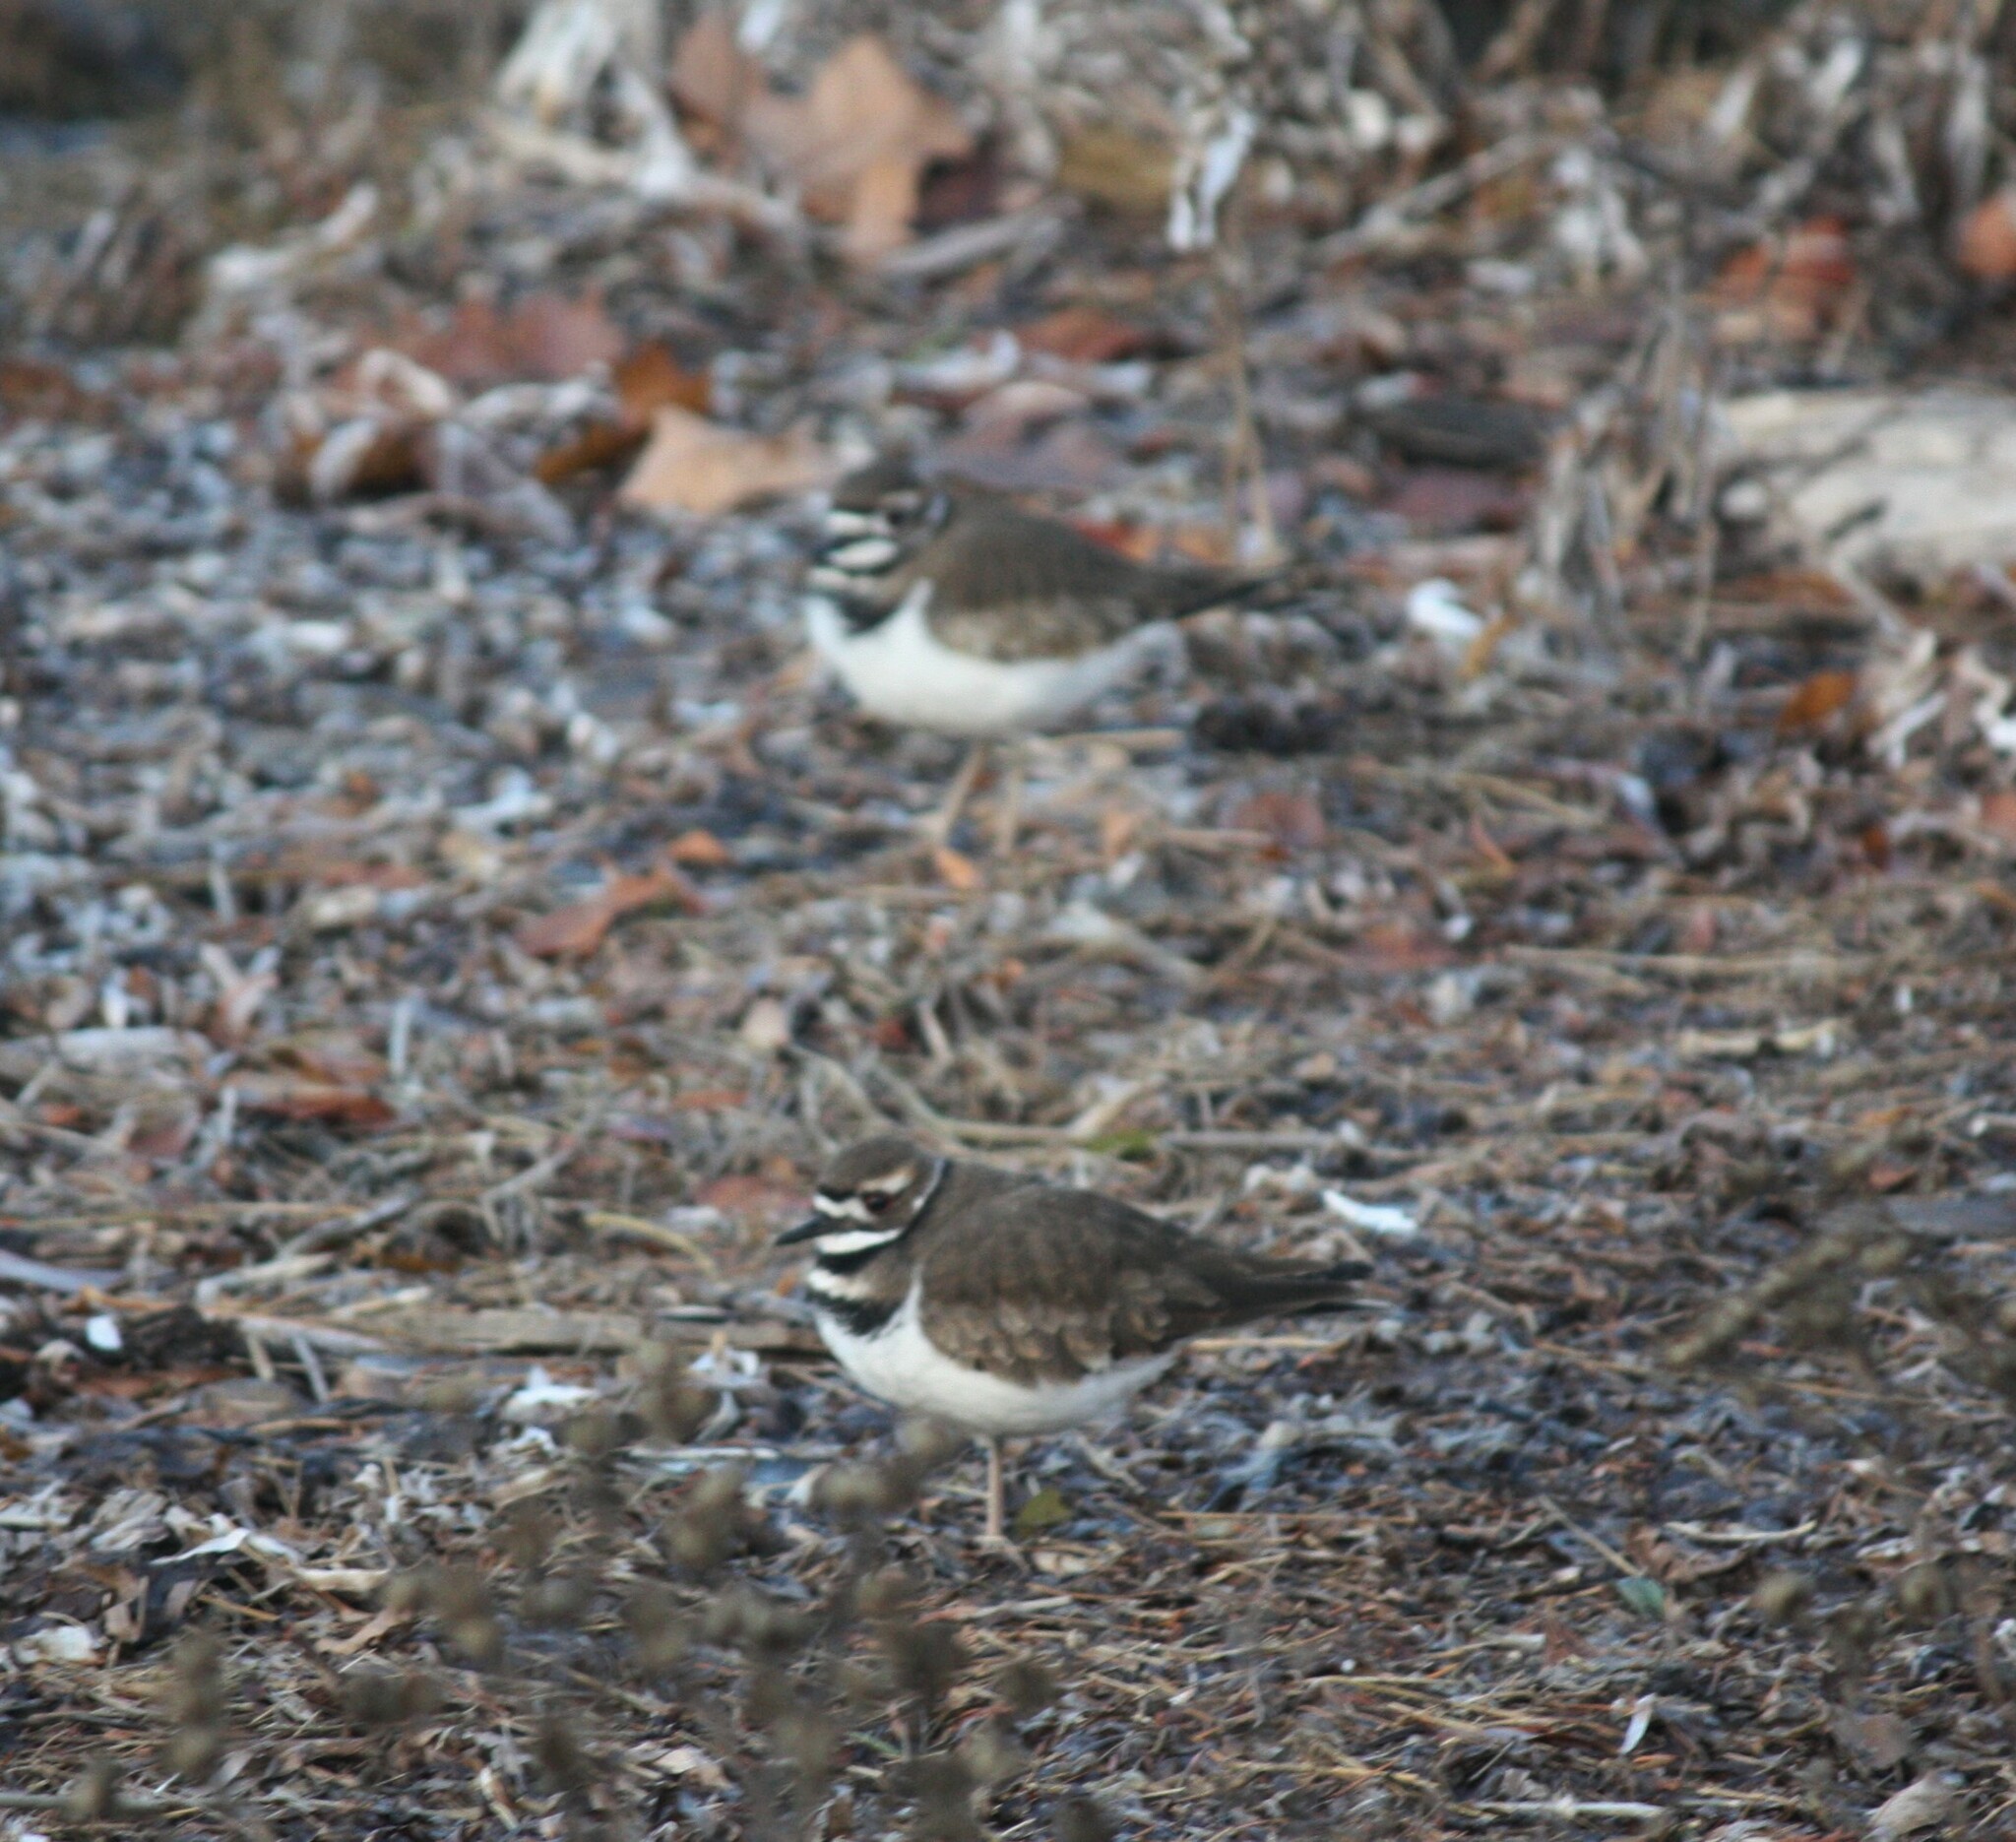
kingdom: Animalia
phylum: Chordata
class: Aves
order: Charadriiformes
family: Charadriidae
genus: Charadrius
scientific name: Charadrius vociferus
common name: Killdeer
